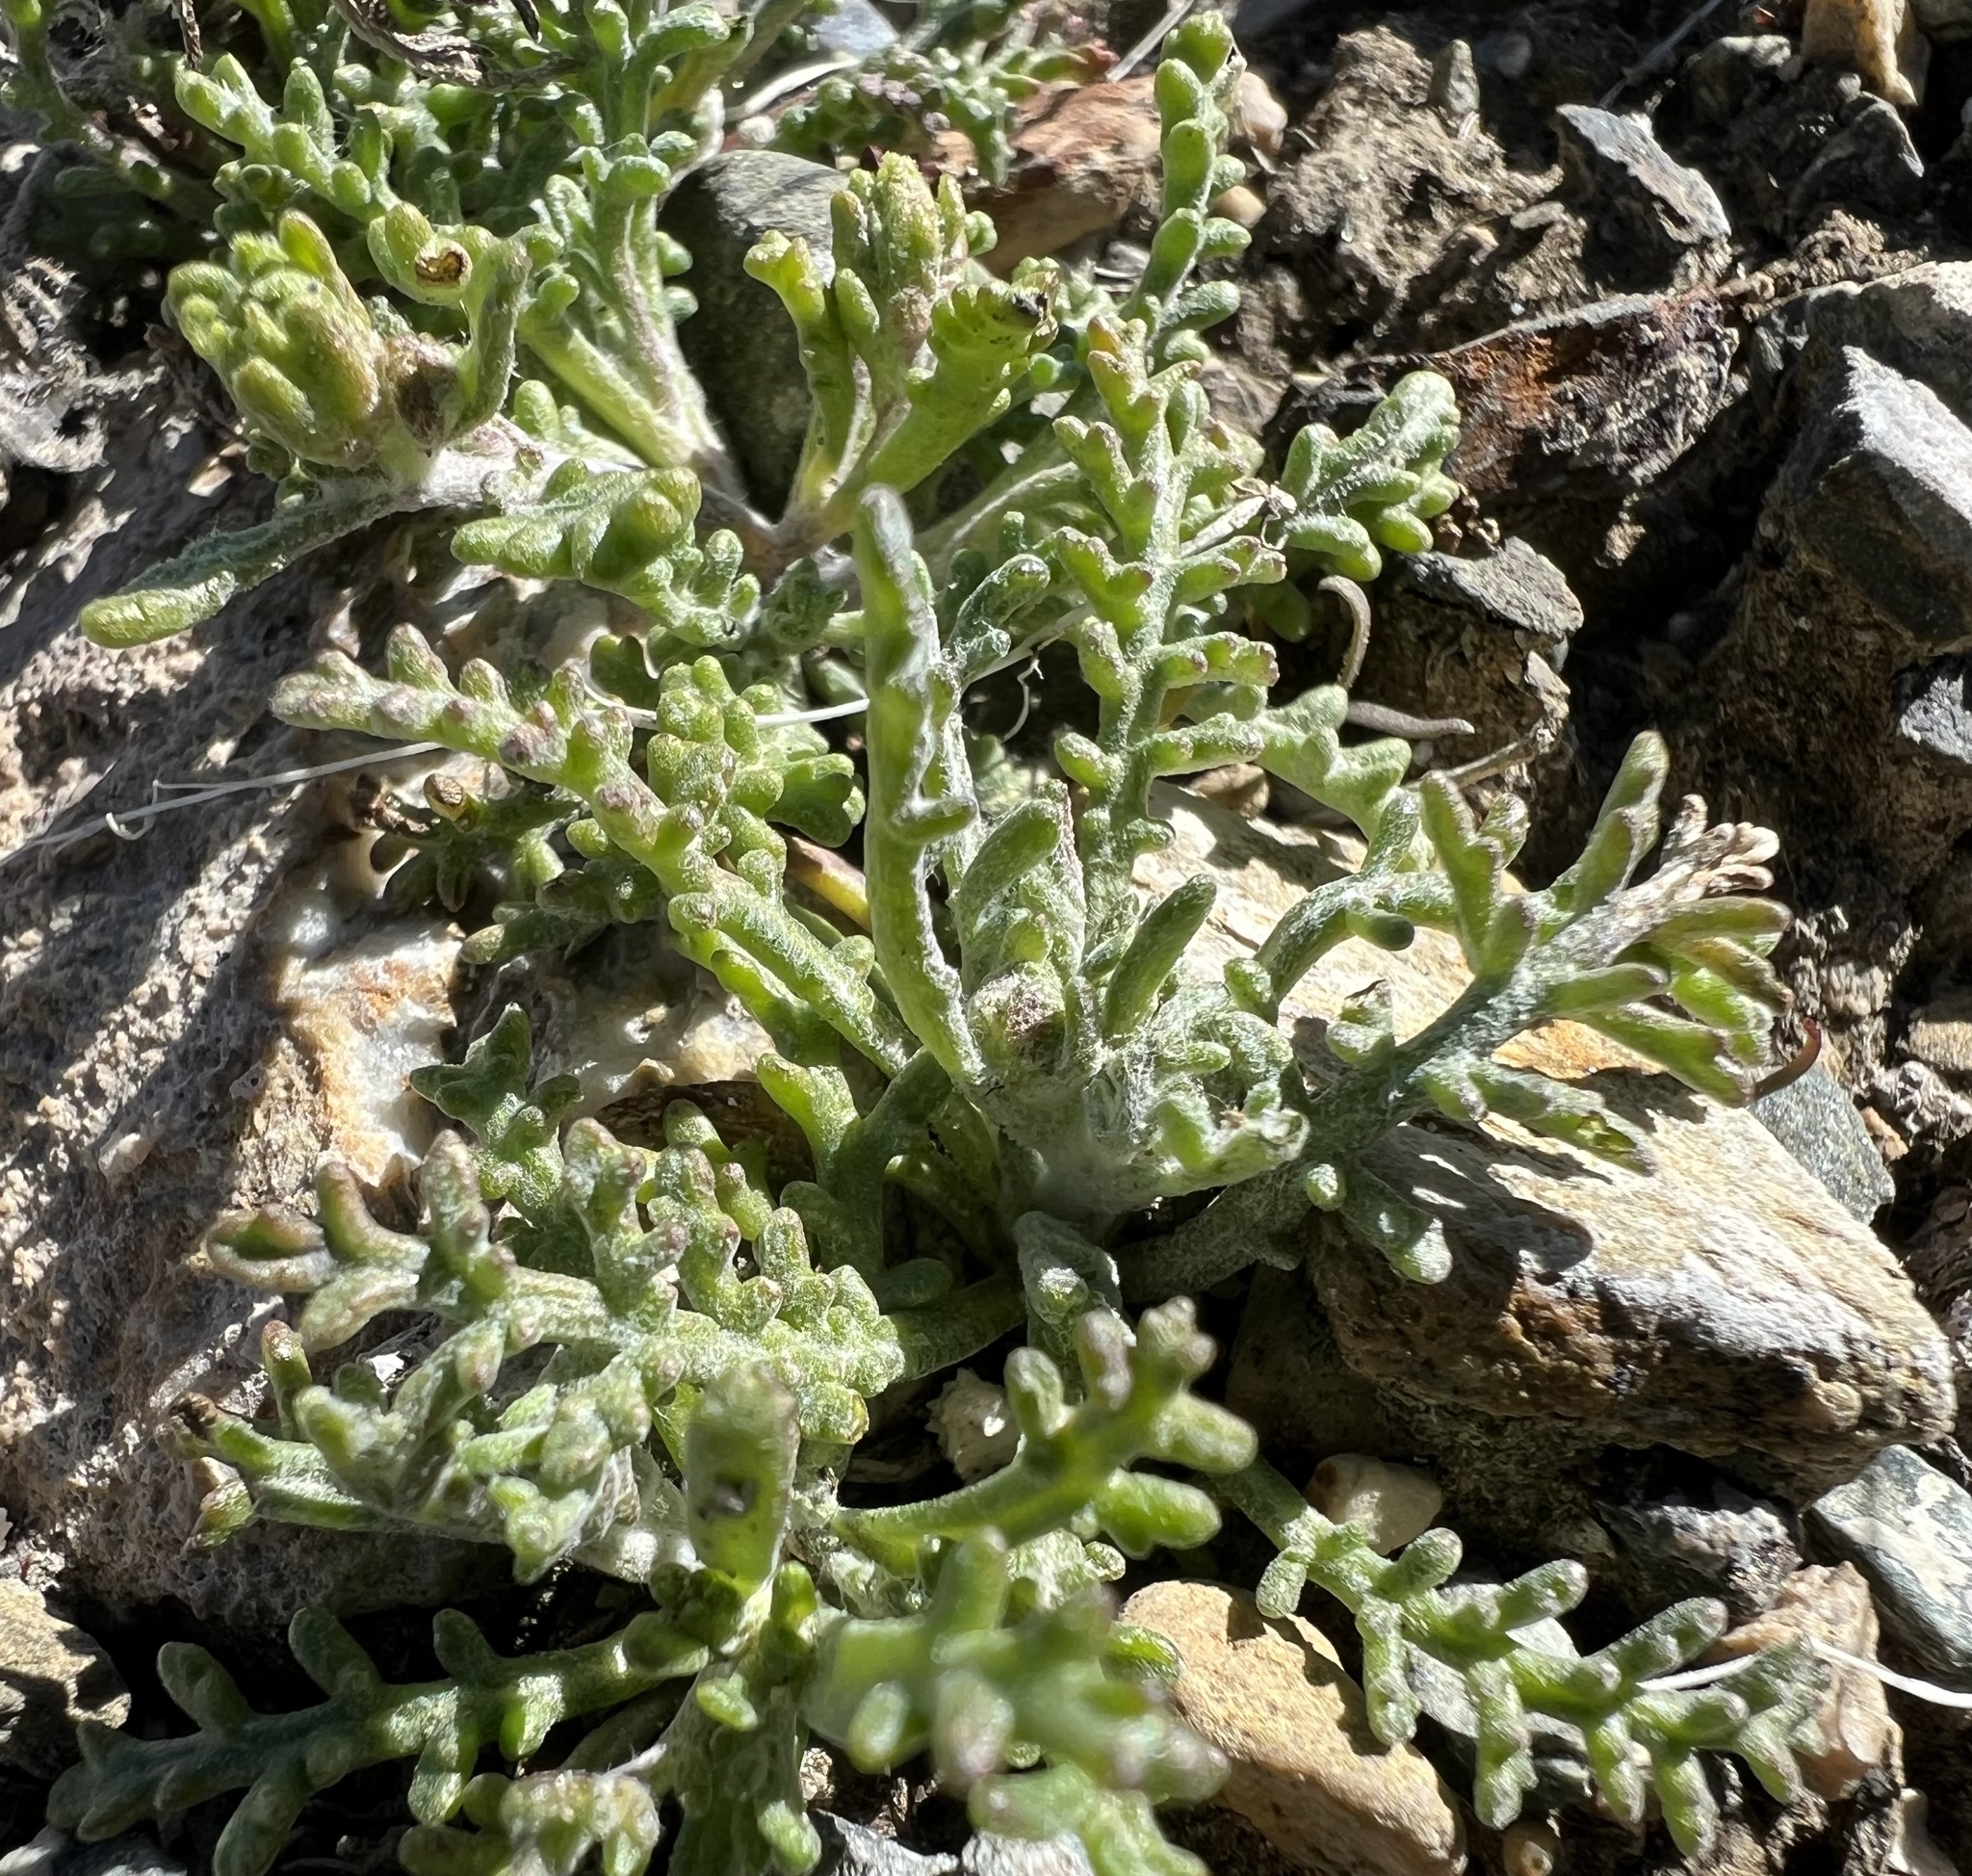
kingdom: Plantae
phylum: Tracheophyta
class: Magnoliopsida
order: Asterales
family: Asteraceae
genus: Chaenactis
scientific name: Chaenactis stevioides
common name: Desert pincushion
